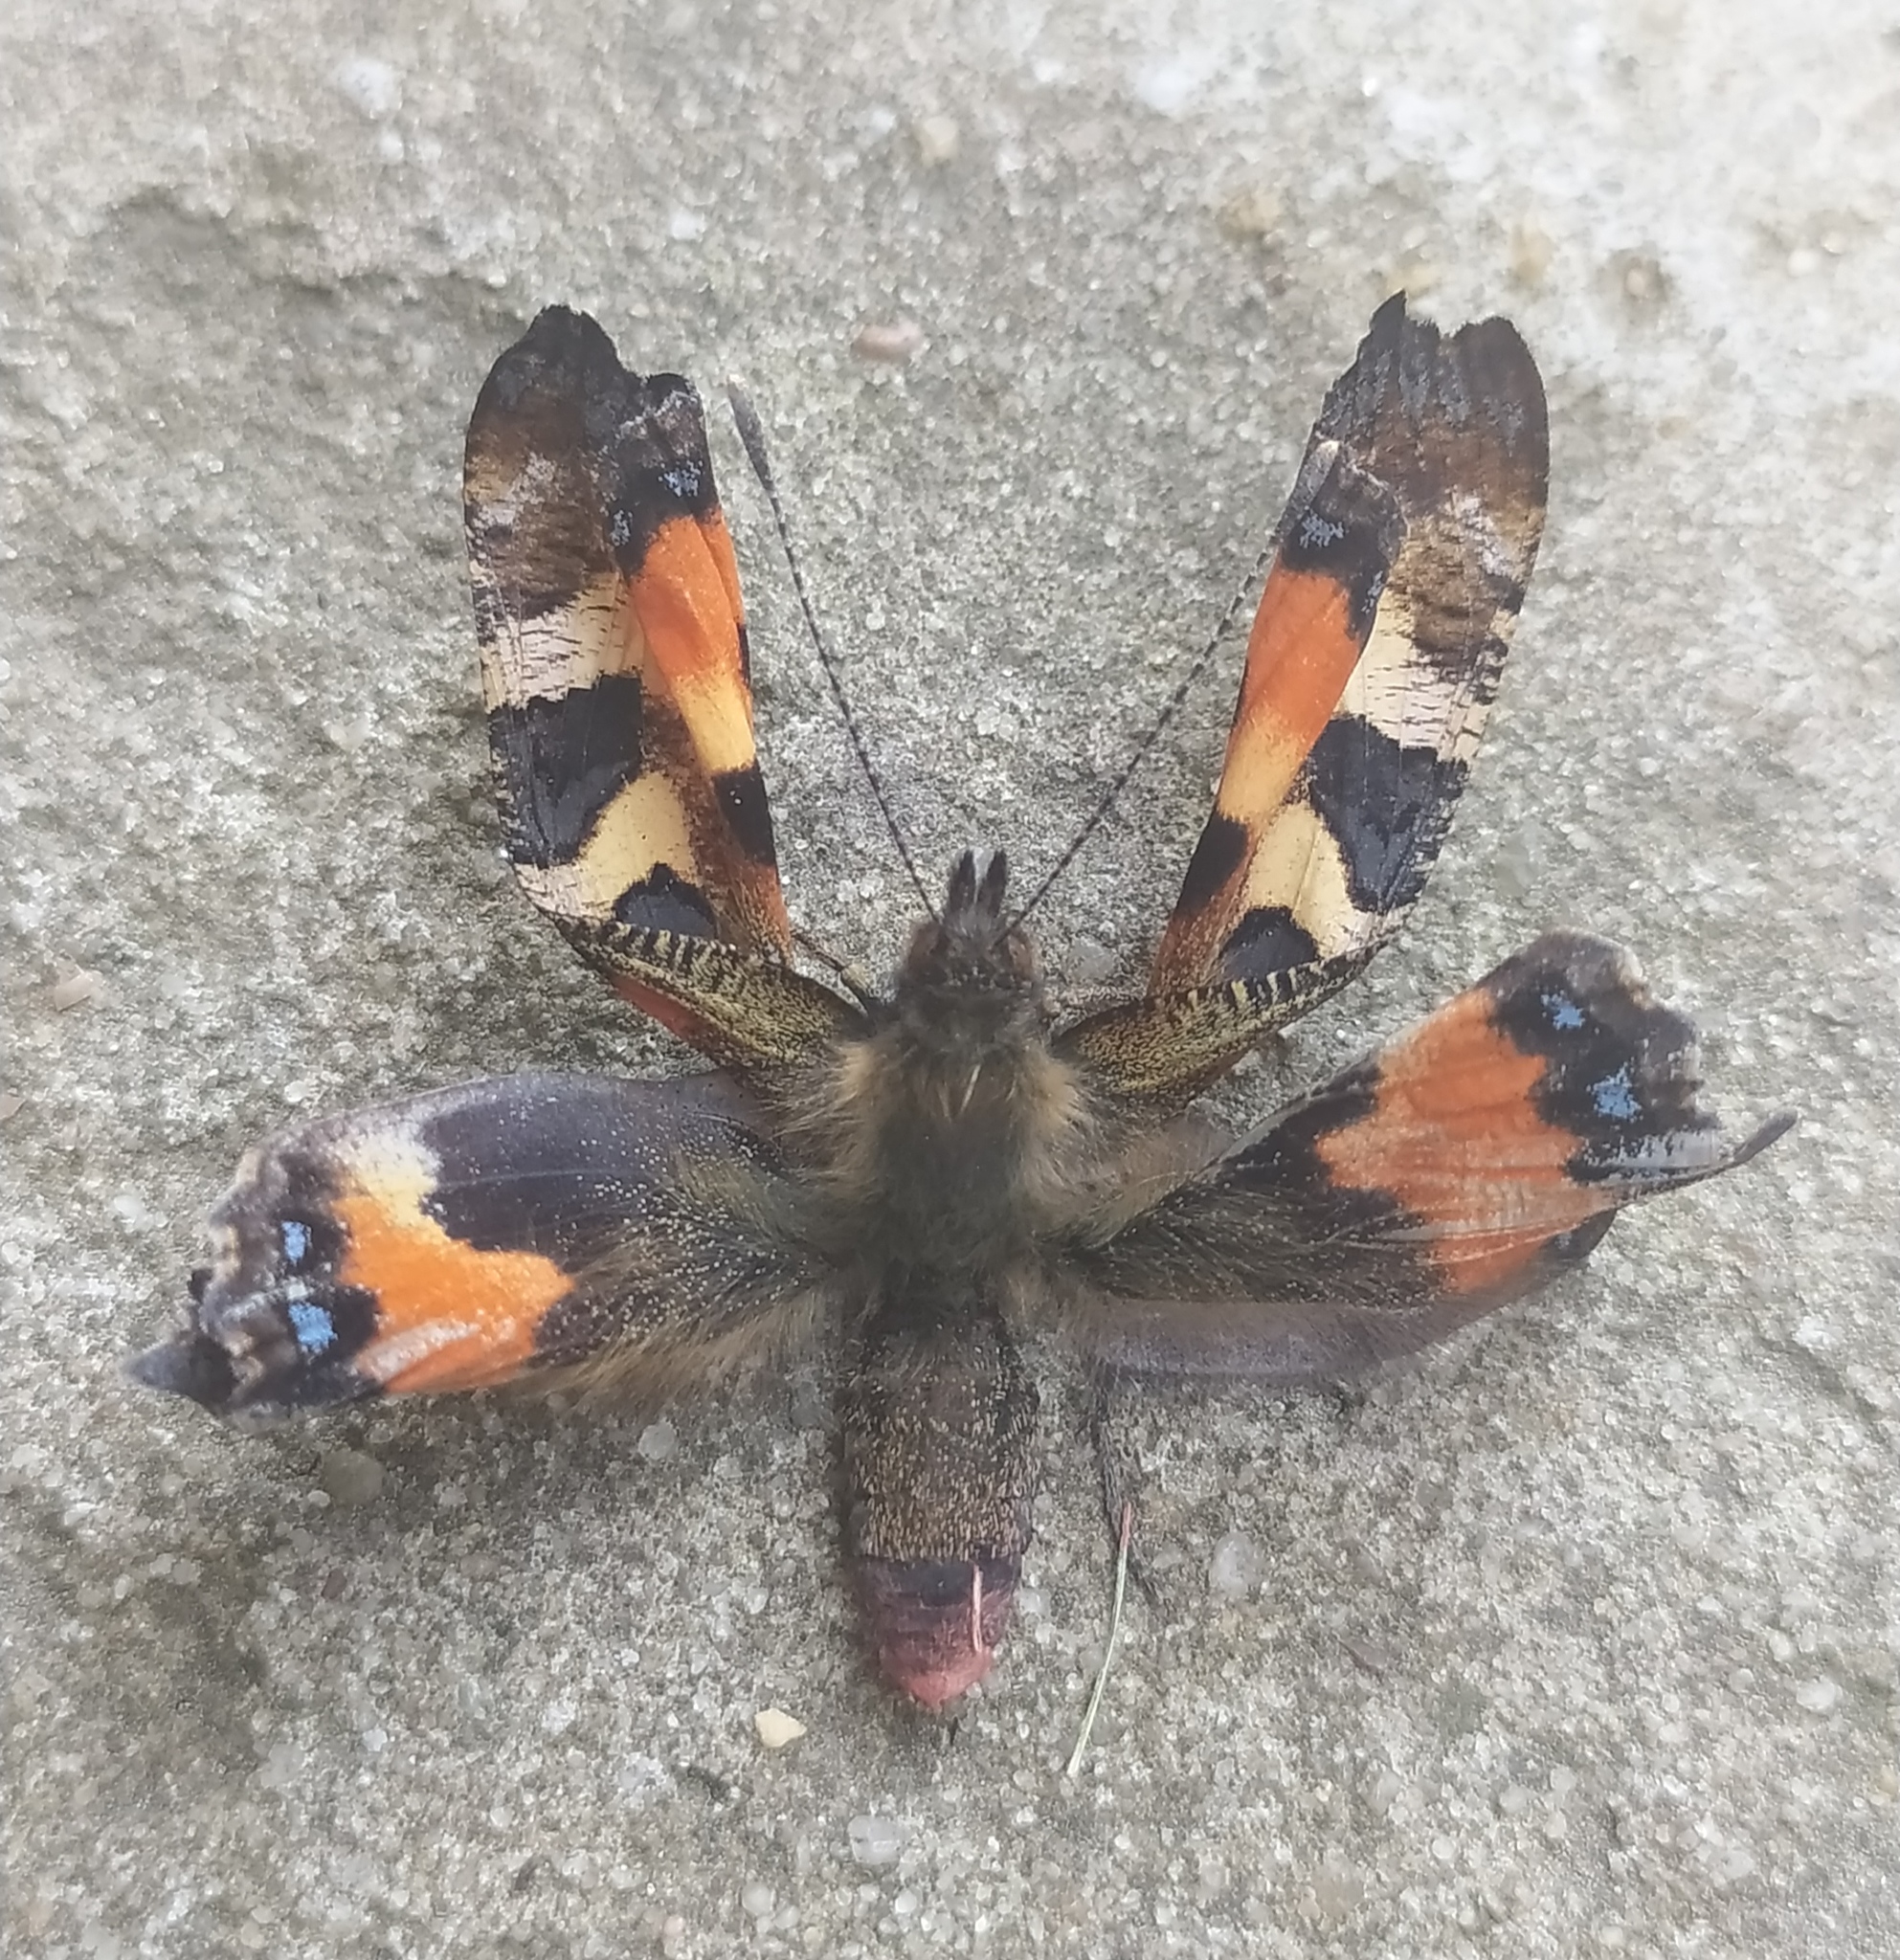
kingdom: Animalia
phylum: Arthropoda
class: Insecta
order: Lepidoptera
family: Nymphalidae
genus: Aglais
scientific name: Aglais urticae
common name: Small tortoiseshell
